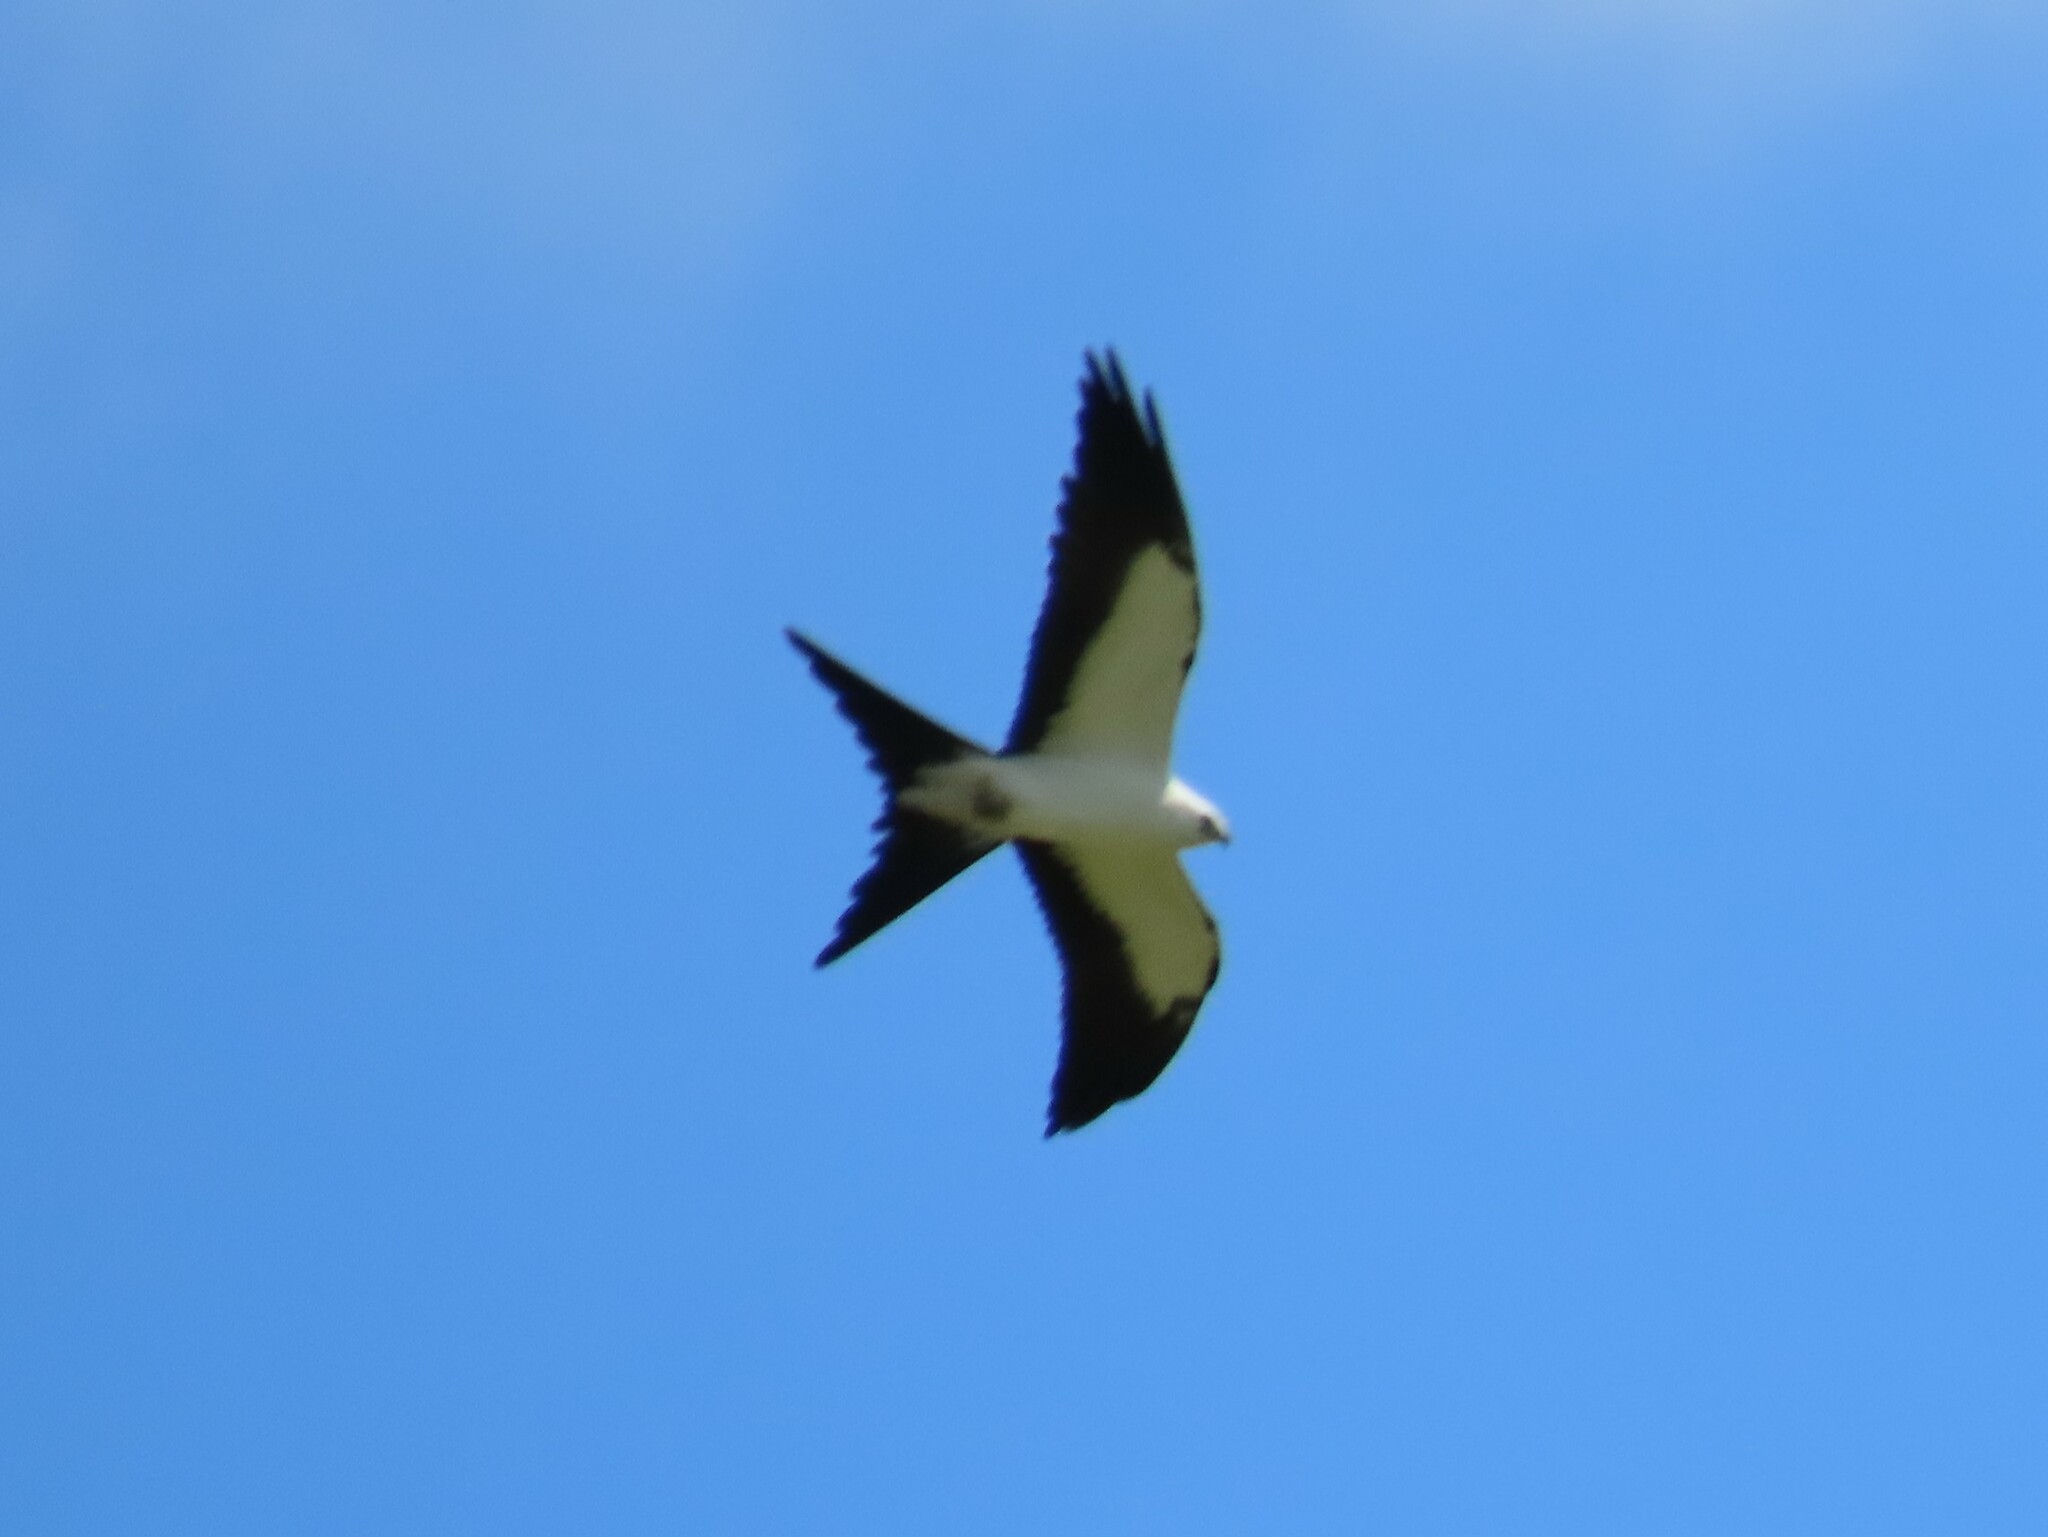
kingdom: Animalia
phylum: Chordata
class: Aves
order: Accipitriformes
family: Accipitridae
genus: Elanoides
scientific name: Elanoides forficatus
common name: Swallow-tailed kite
